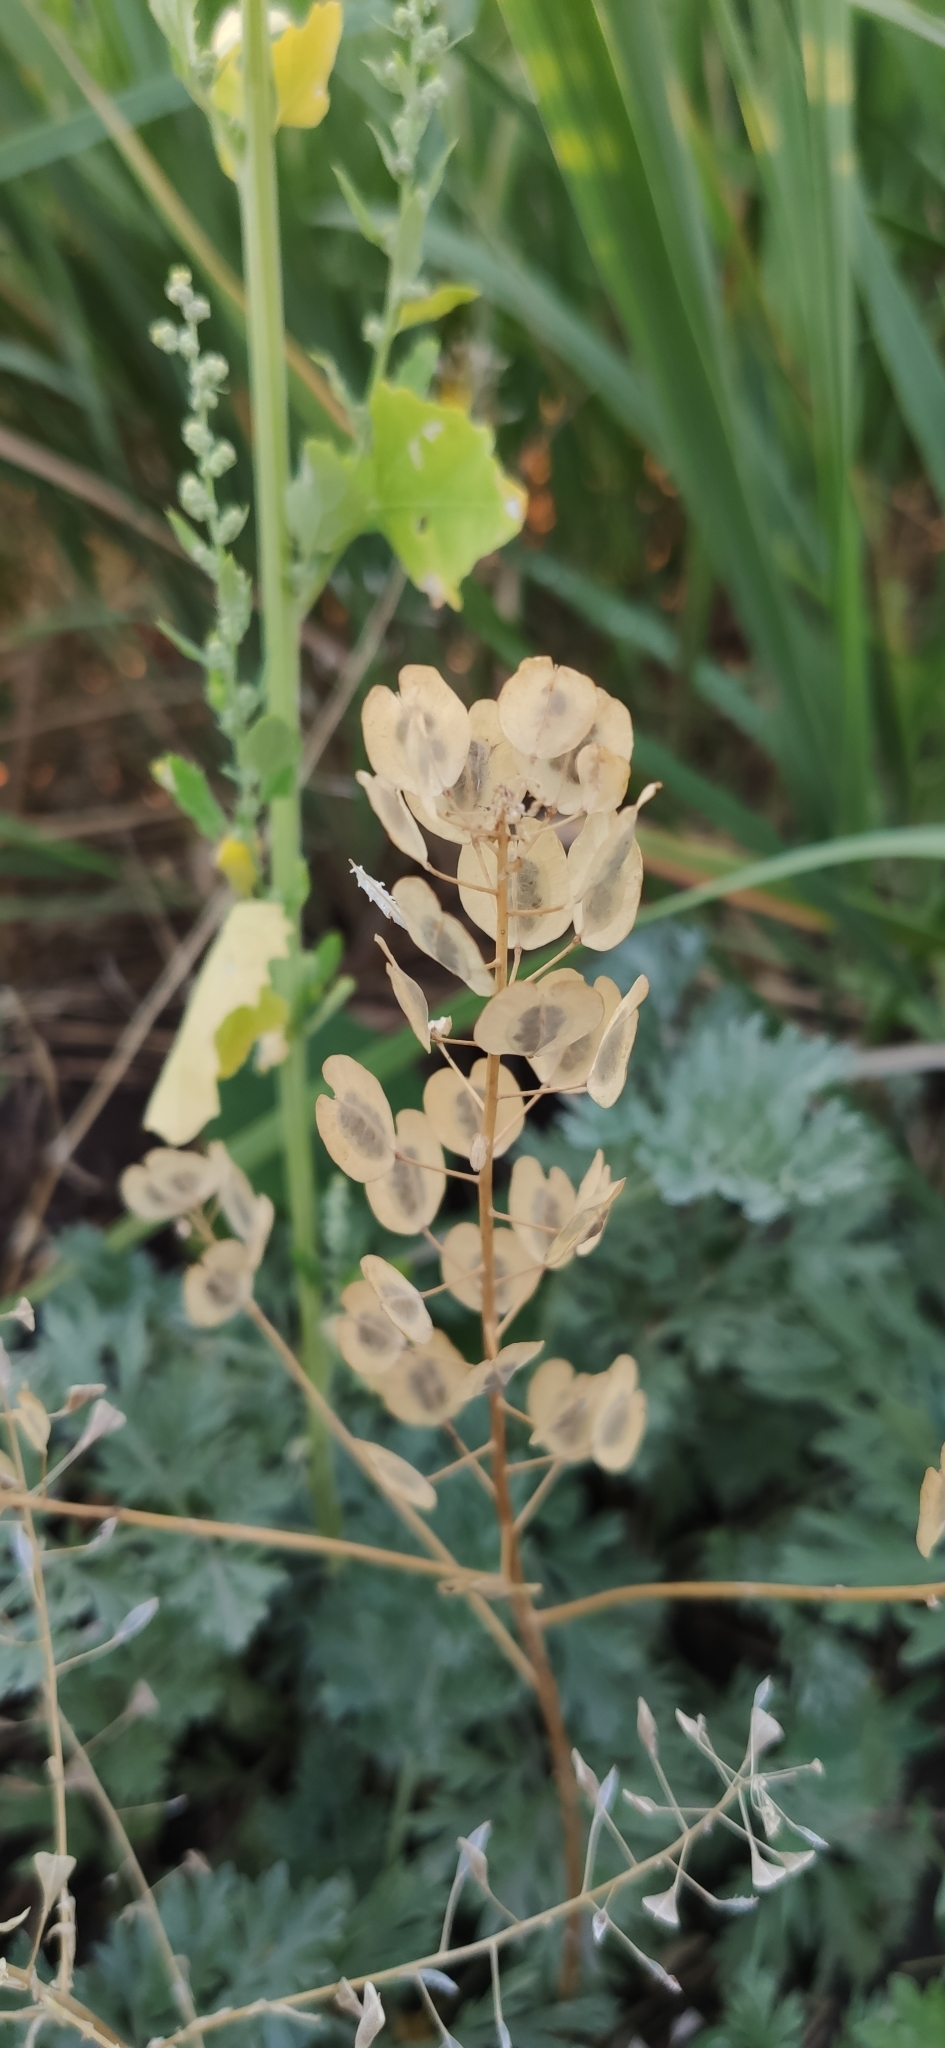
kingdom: Plantae
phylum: Tracheophyta
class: Magnoliopsida
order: Brassicales
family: Brassicaceae
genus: Thlaspi
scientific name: Thlaspi arvense
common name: Field pennycress
